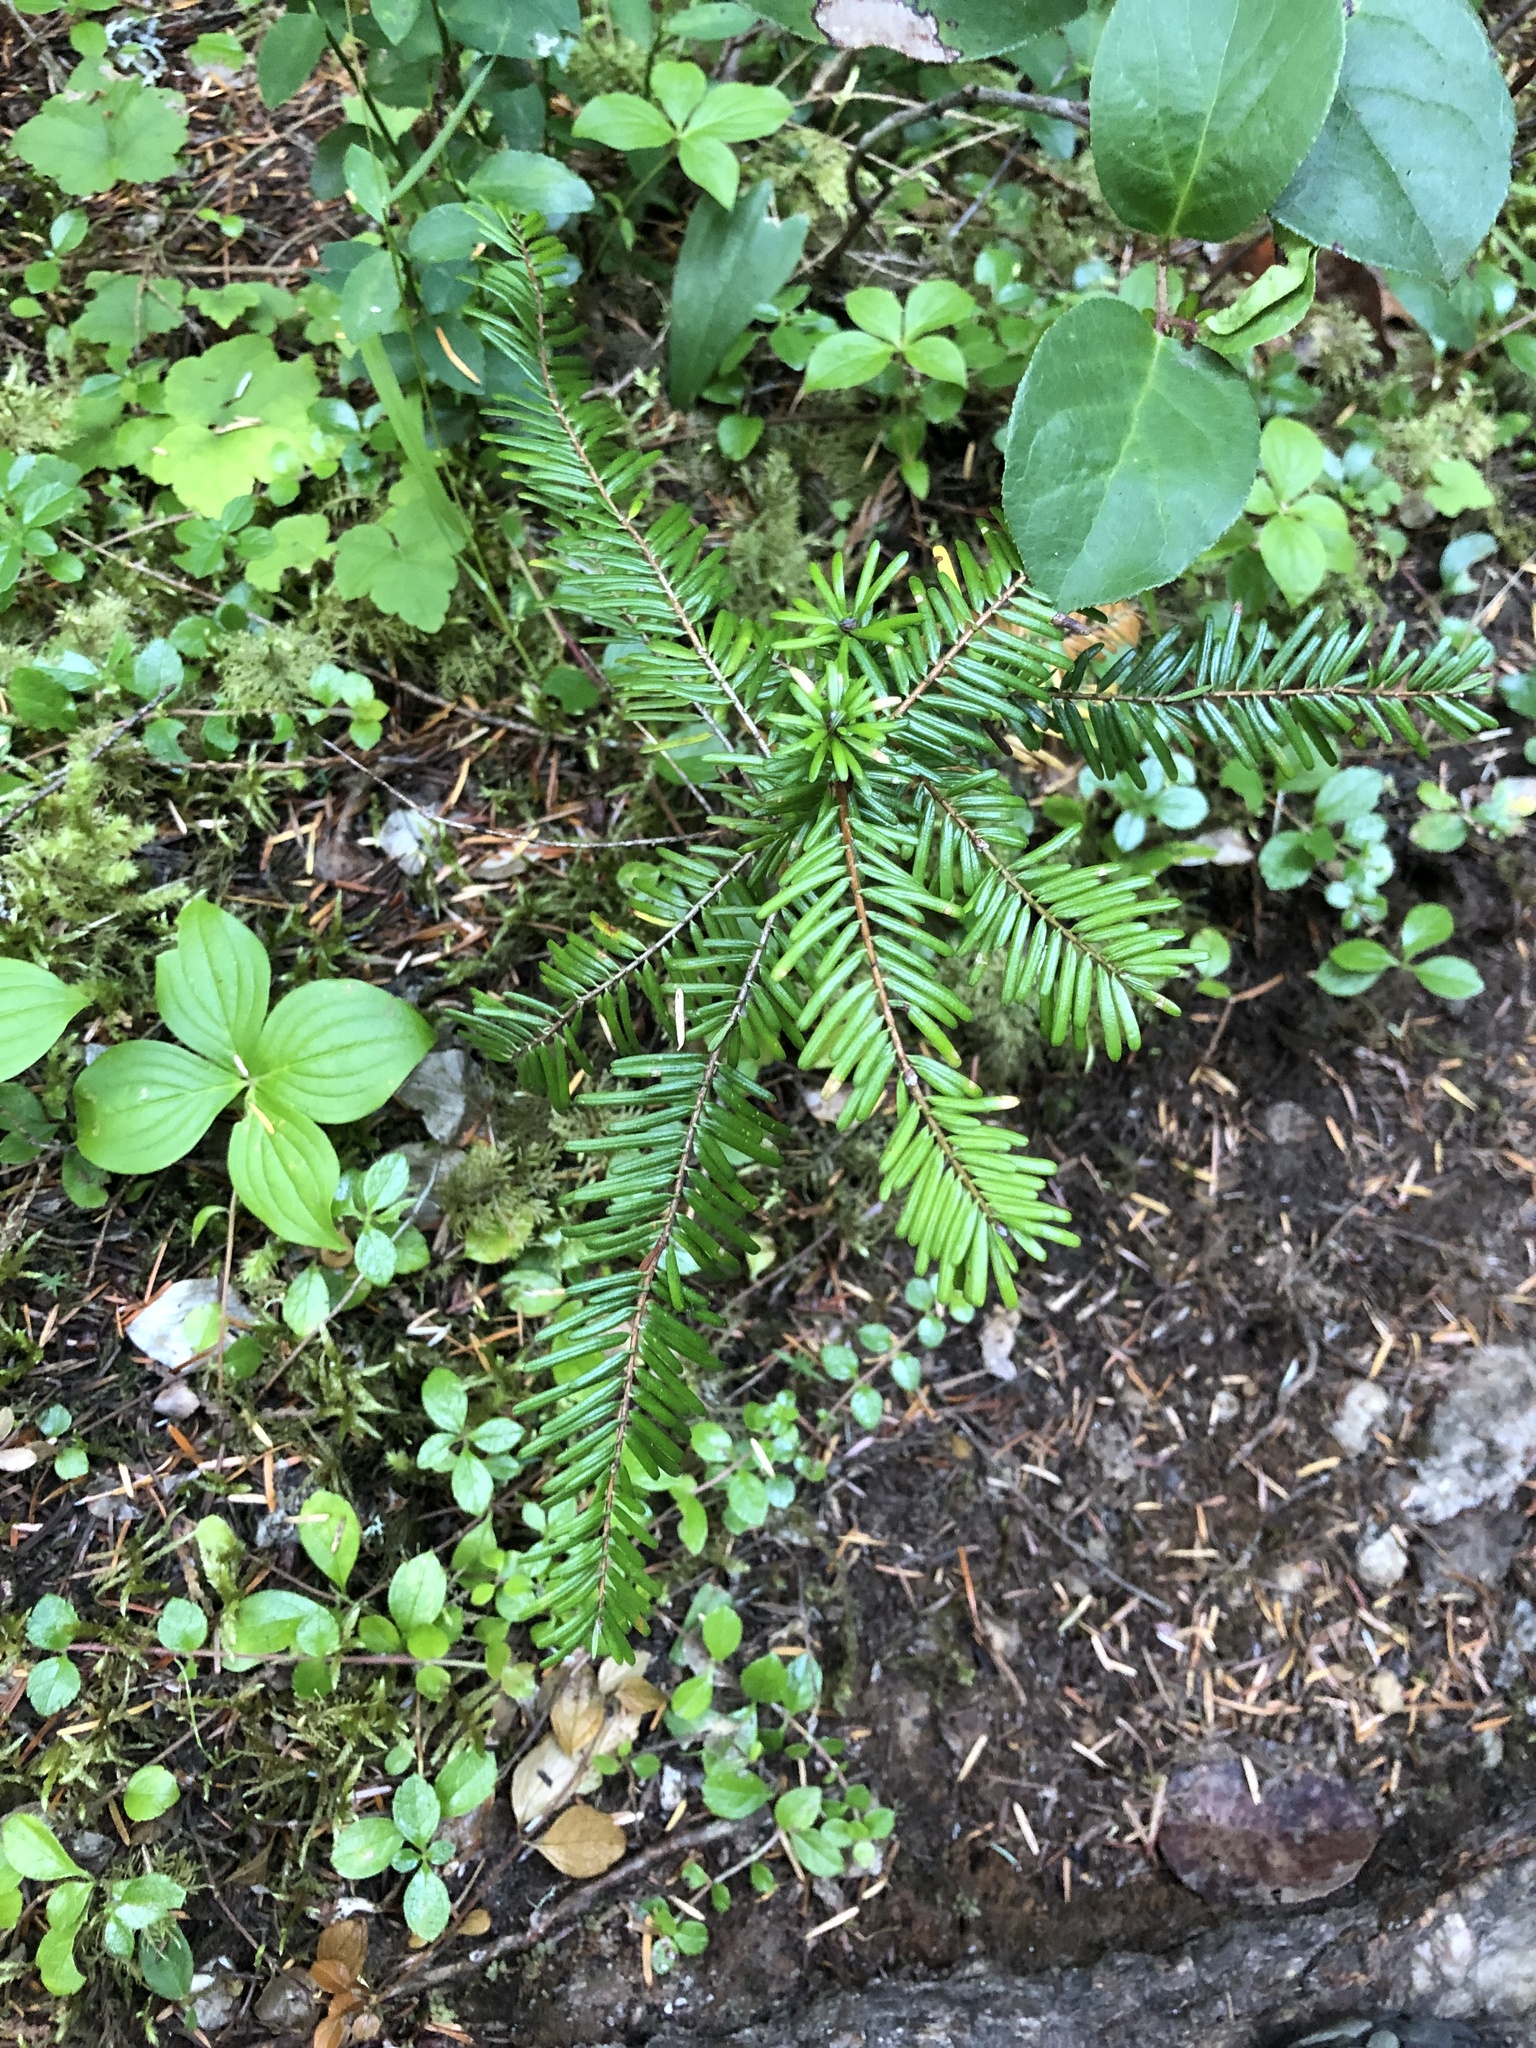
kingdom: Plantae
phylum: Tracheophyta
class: Pinopsida
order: Pinales
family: Pinaceae
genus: Abies
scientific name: Abies grandis
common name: Giant fir
